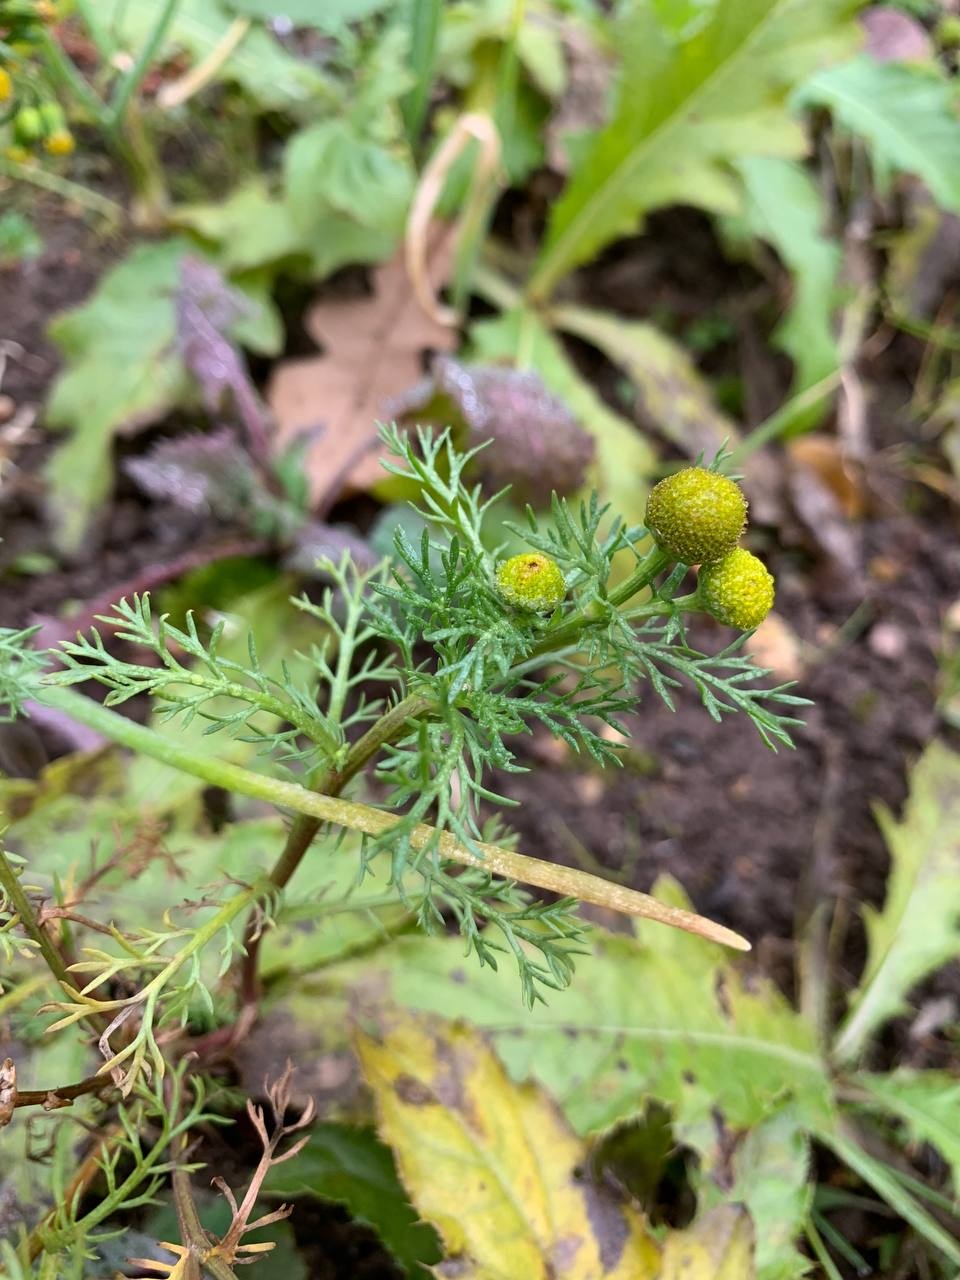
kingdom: Plantae
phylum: Tracheophyta
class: Magnoliopsida
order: Asterales
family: Asteraceae
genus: Matricaria
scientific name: Matricaria discoidea
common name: Disc mayweed
